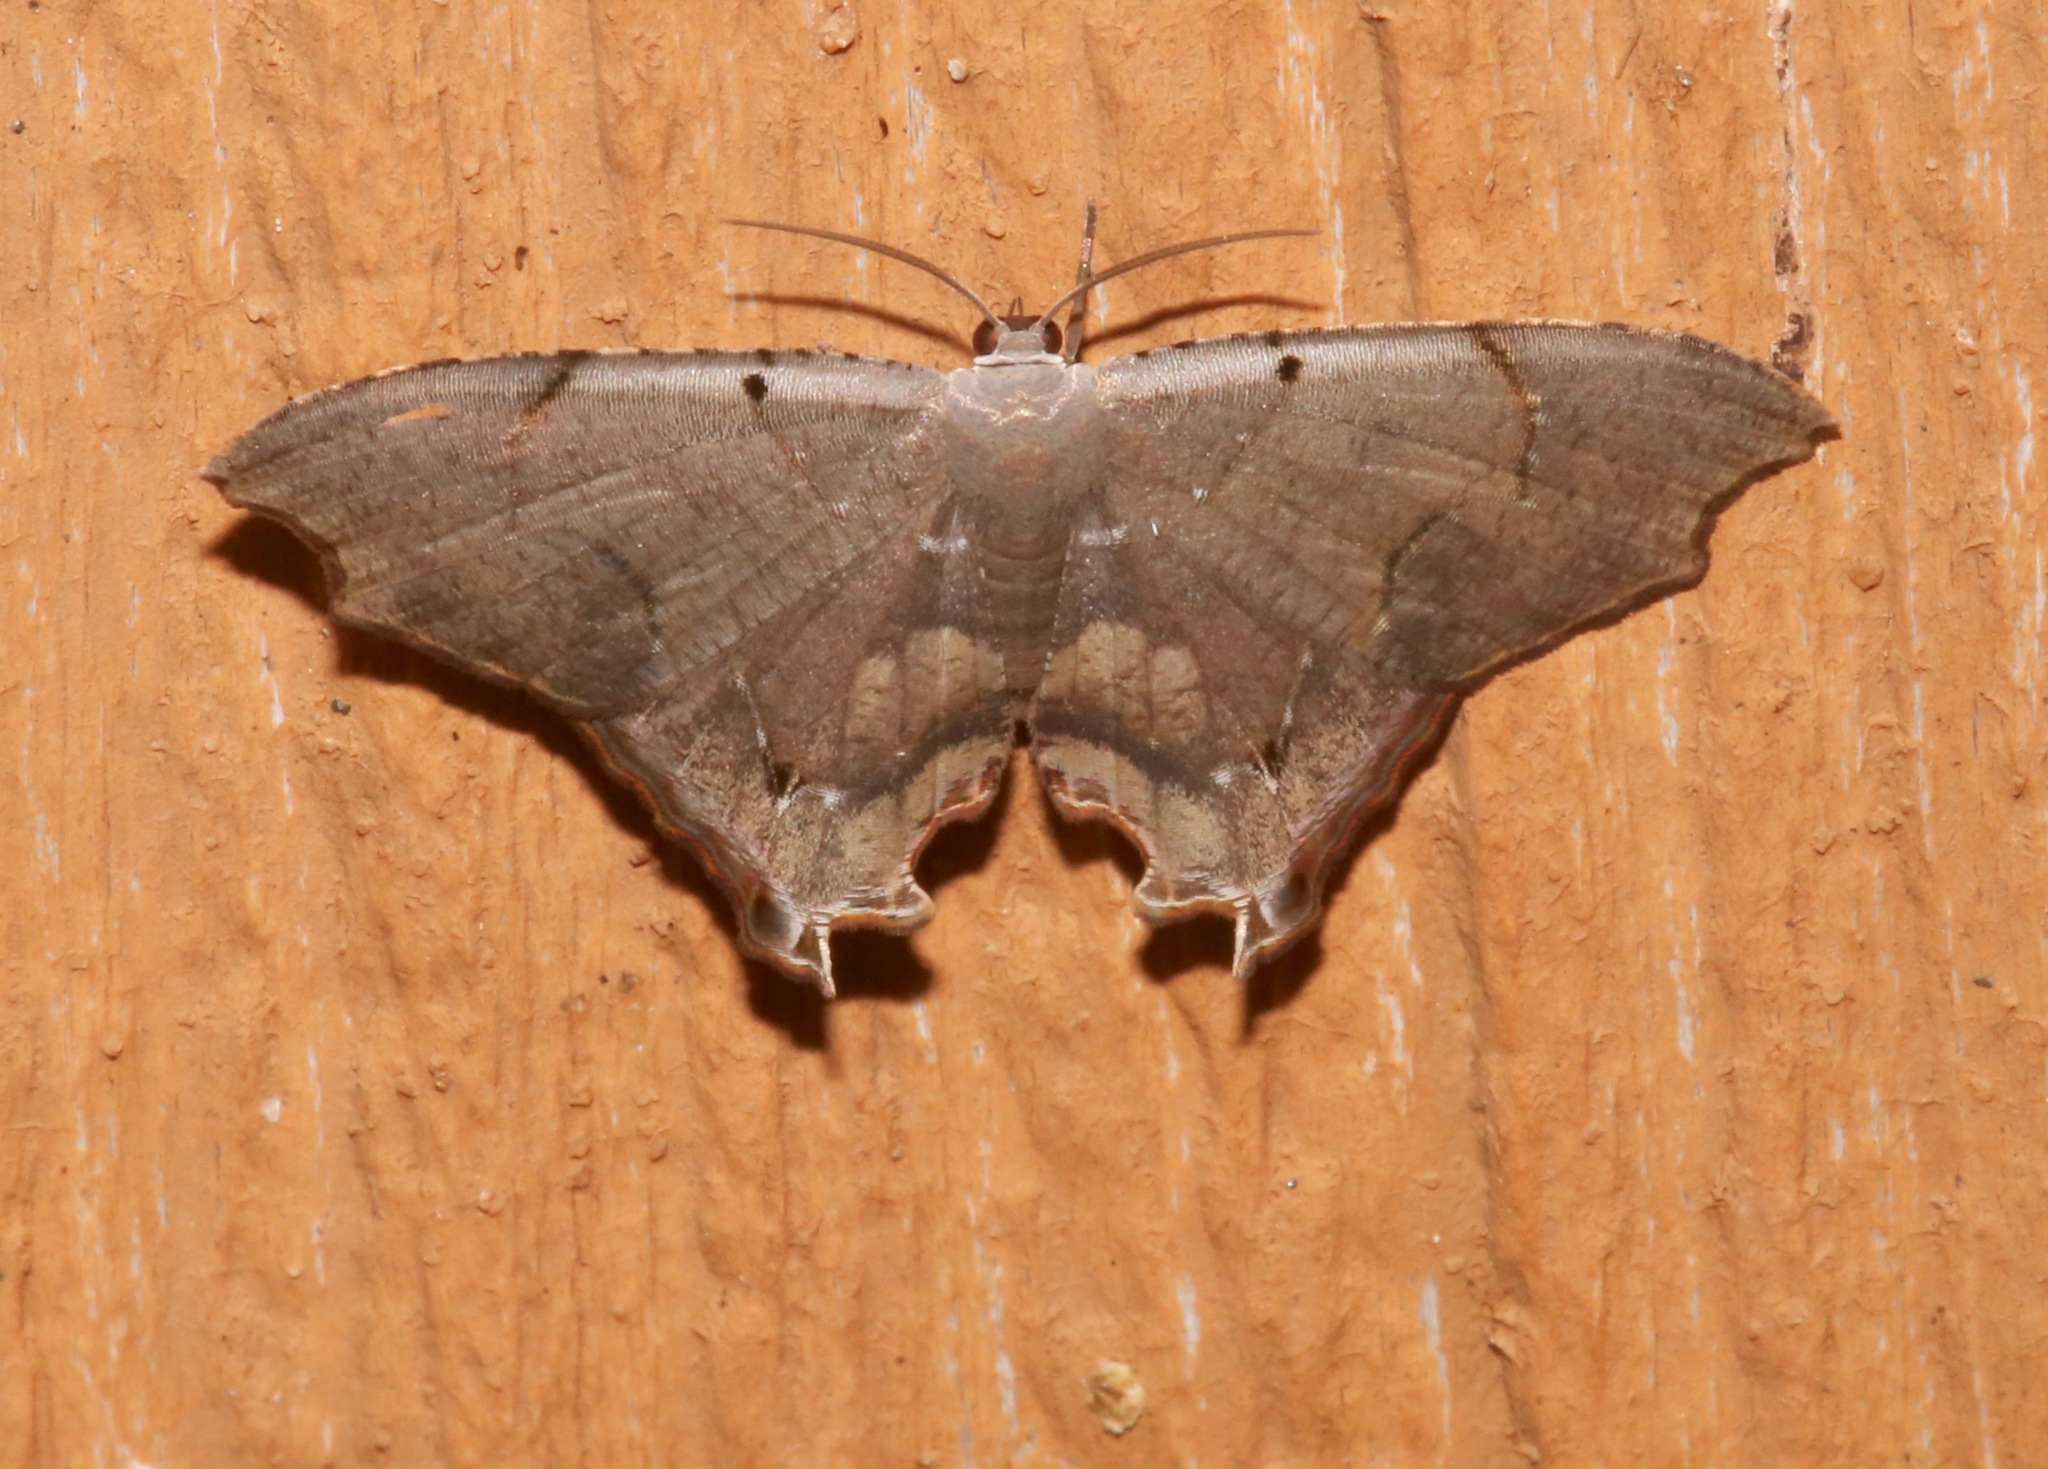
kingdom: Animalia
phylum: Arthropoda
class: Insecta
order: Lepidoptera
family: Uraniidae
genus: Trotorhombia
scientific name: Trotorhombia metachromata
